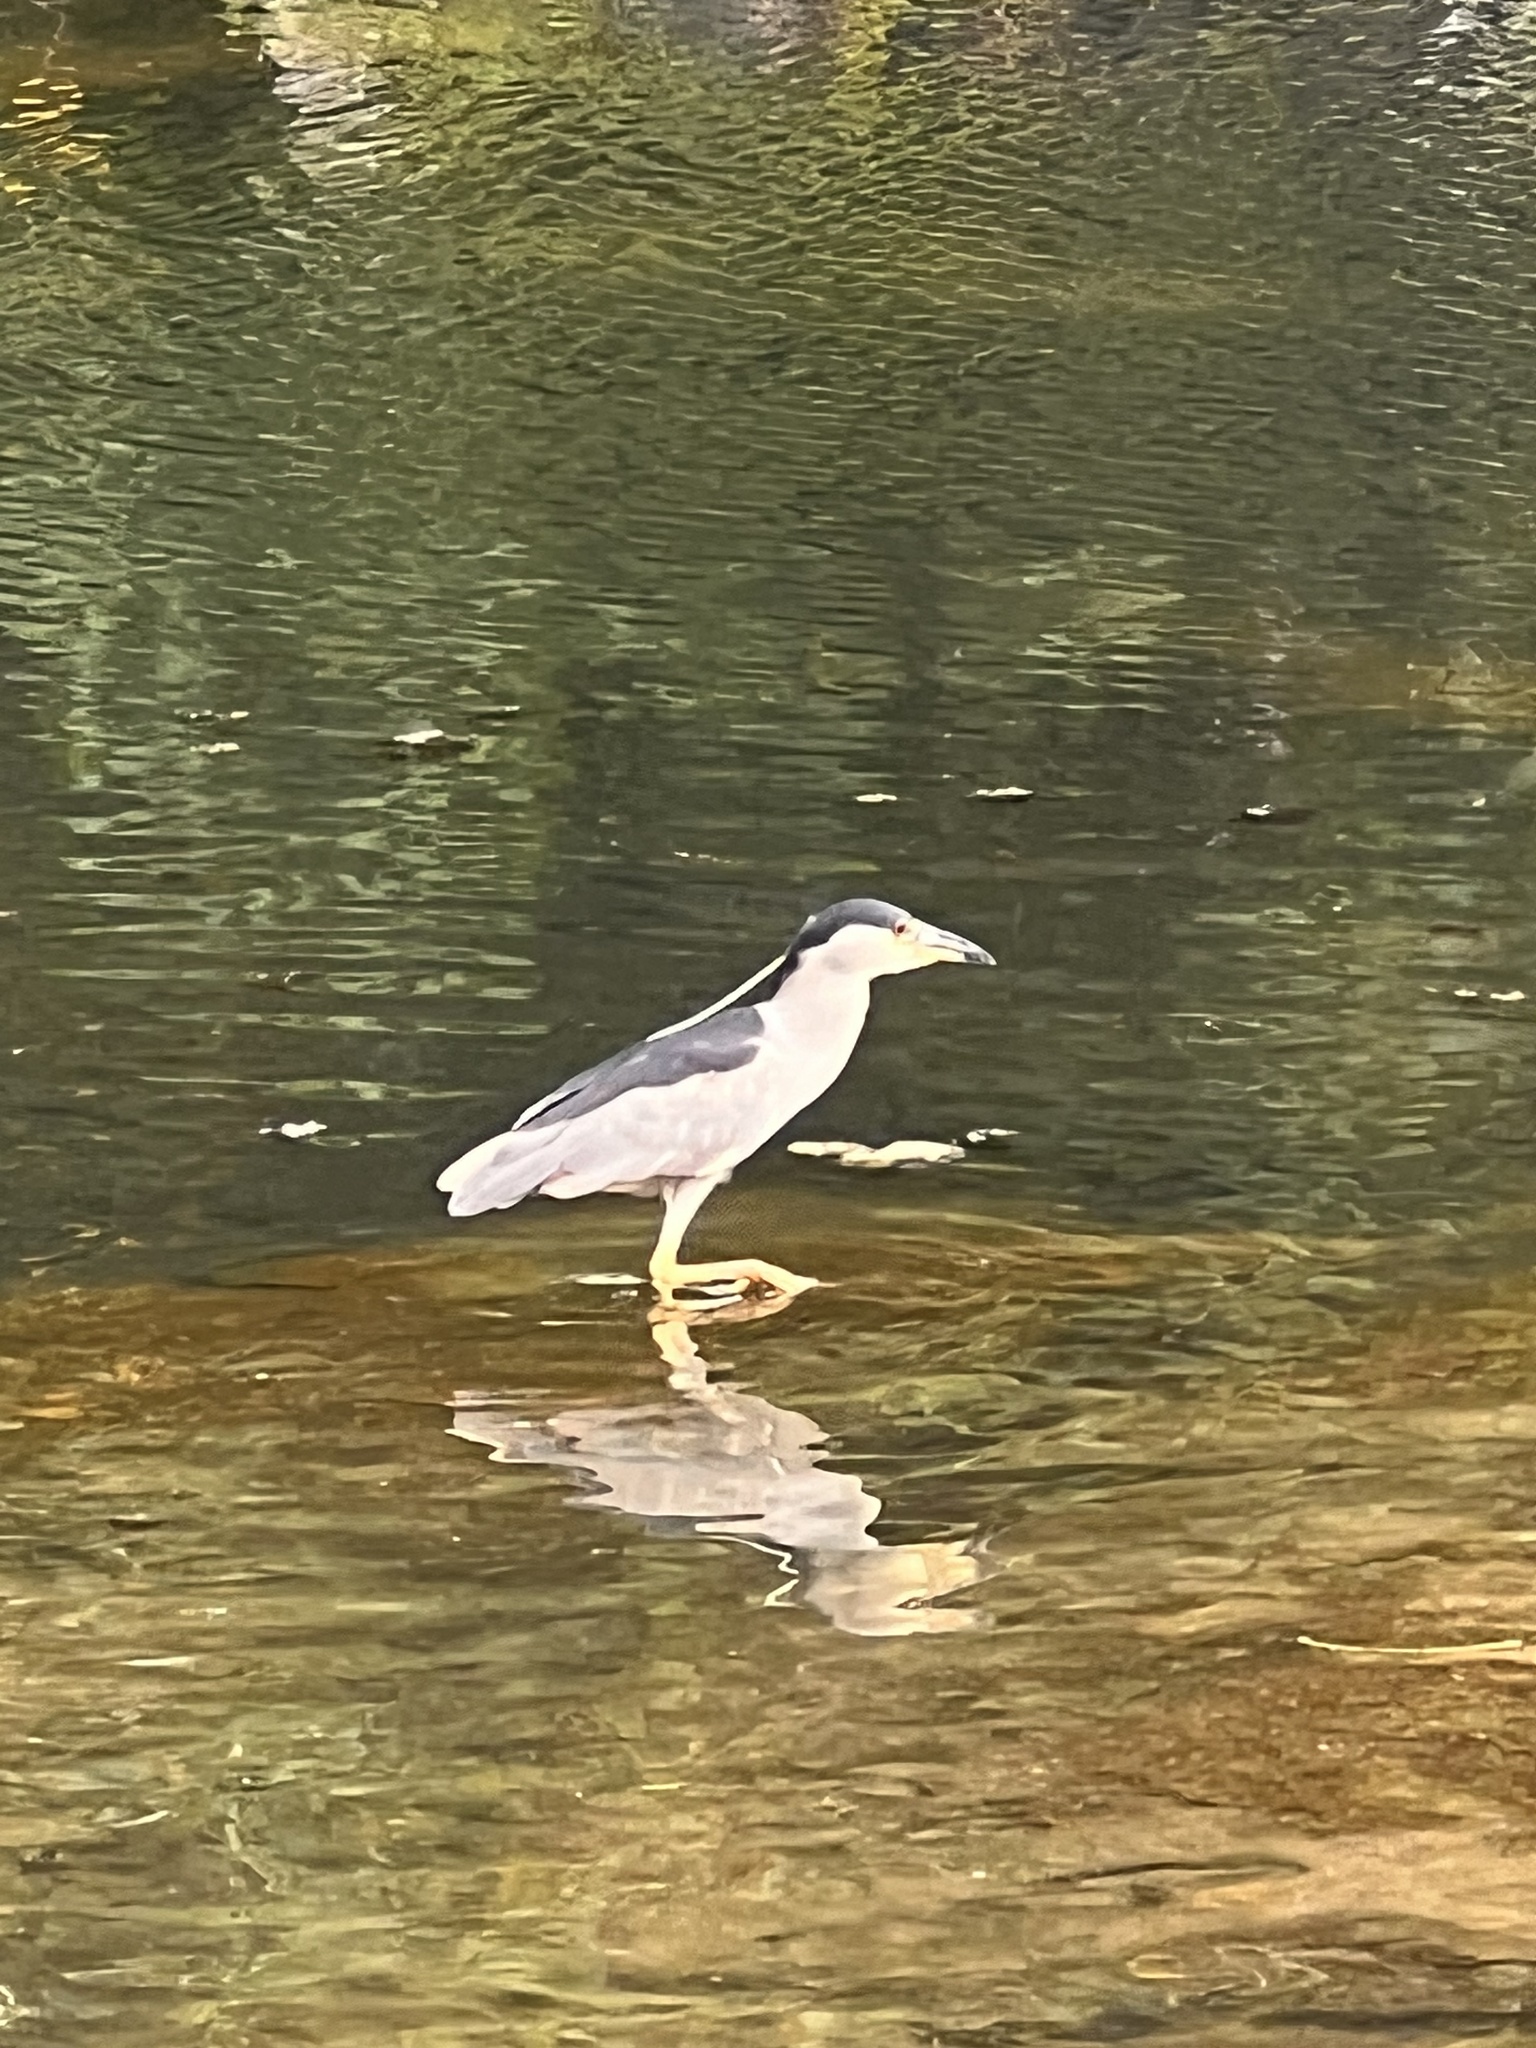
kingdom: Animalia
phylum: Chordata
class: Aves
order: Pelecaniformes
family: Ardeidae
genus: Nycticorax
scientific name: Nycticorax nycticorax
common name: Black-crowned night heron
